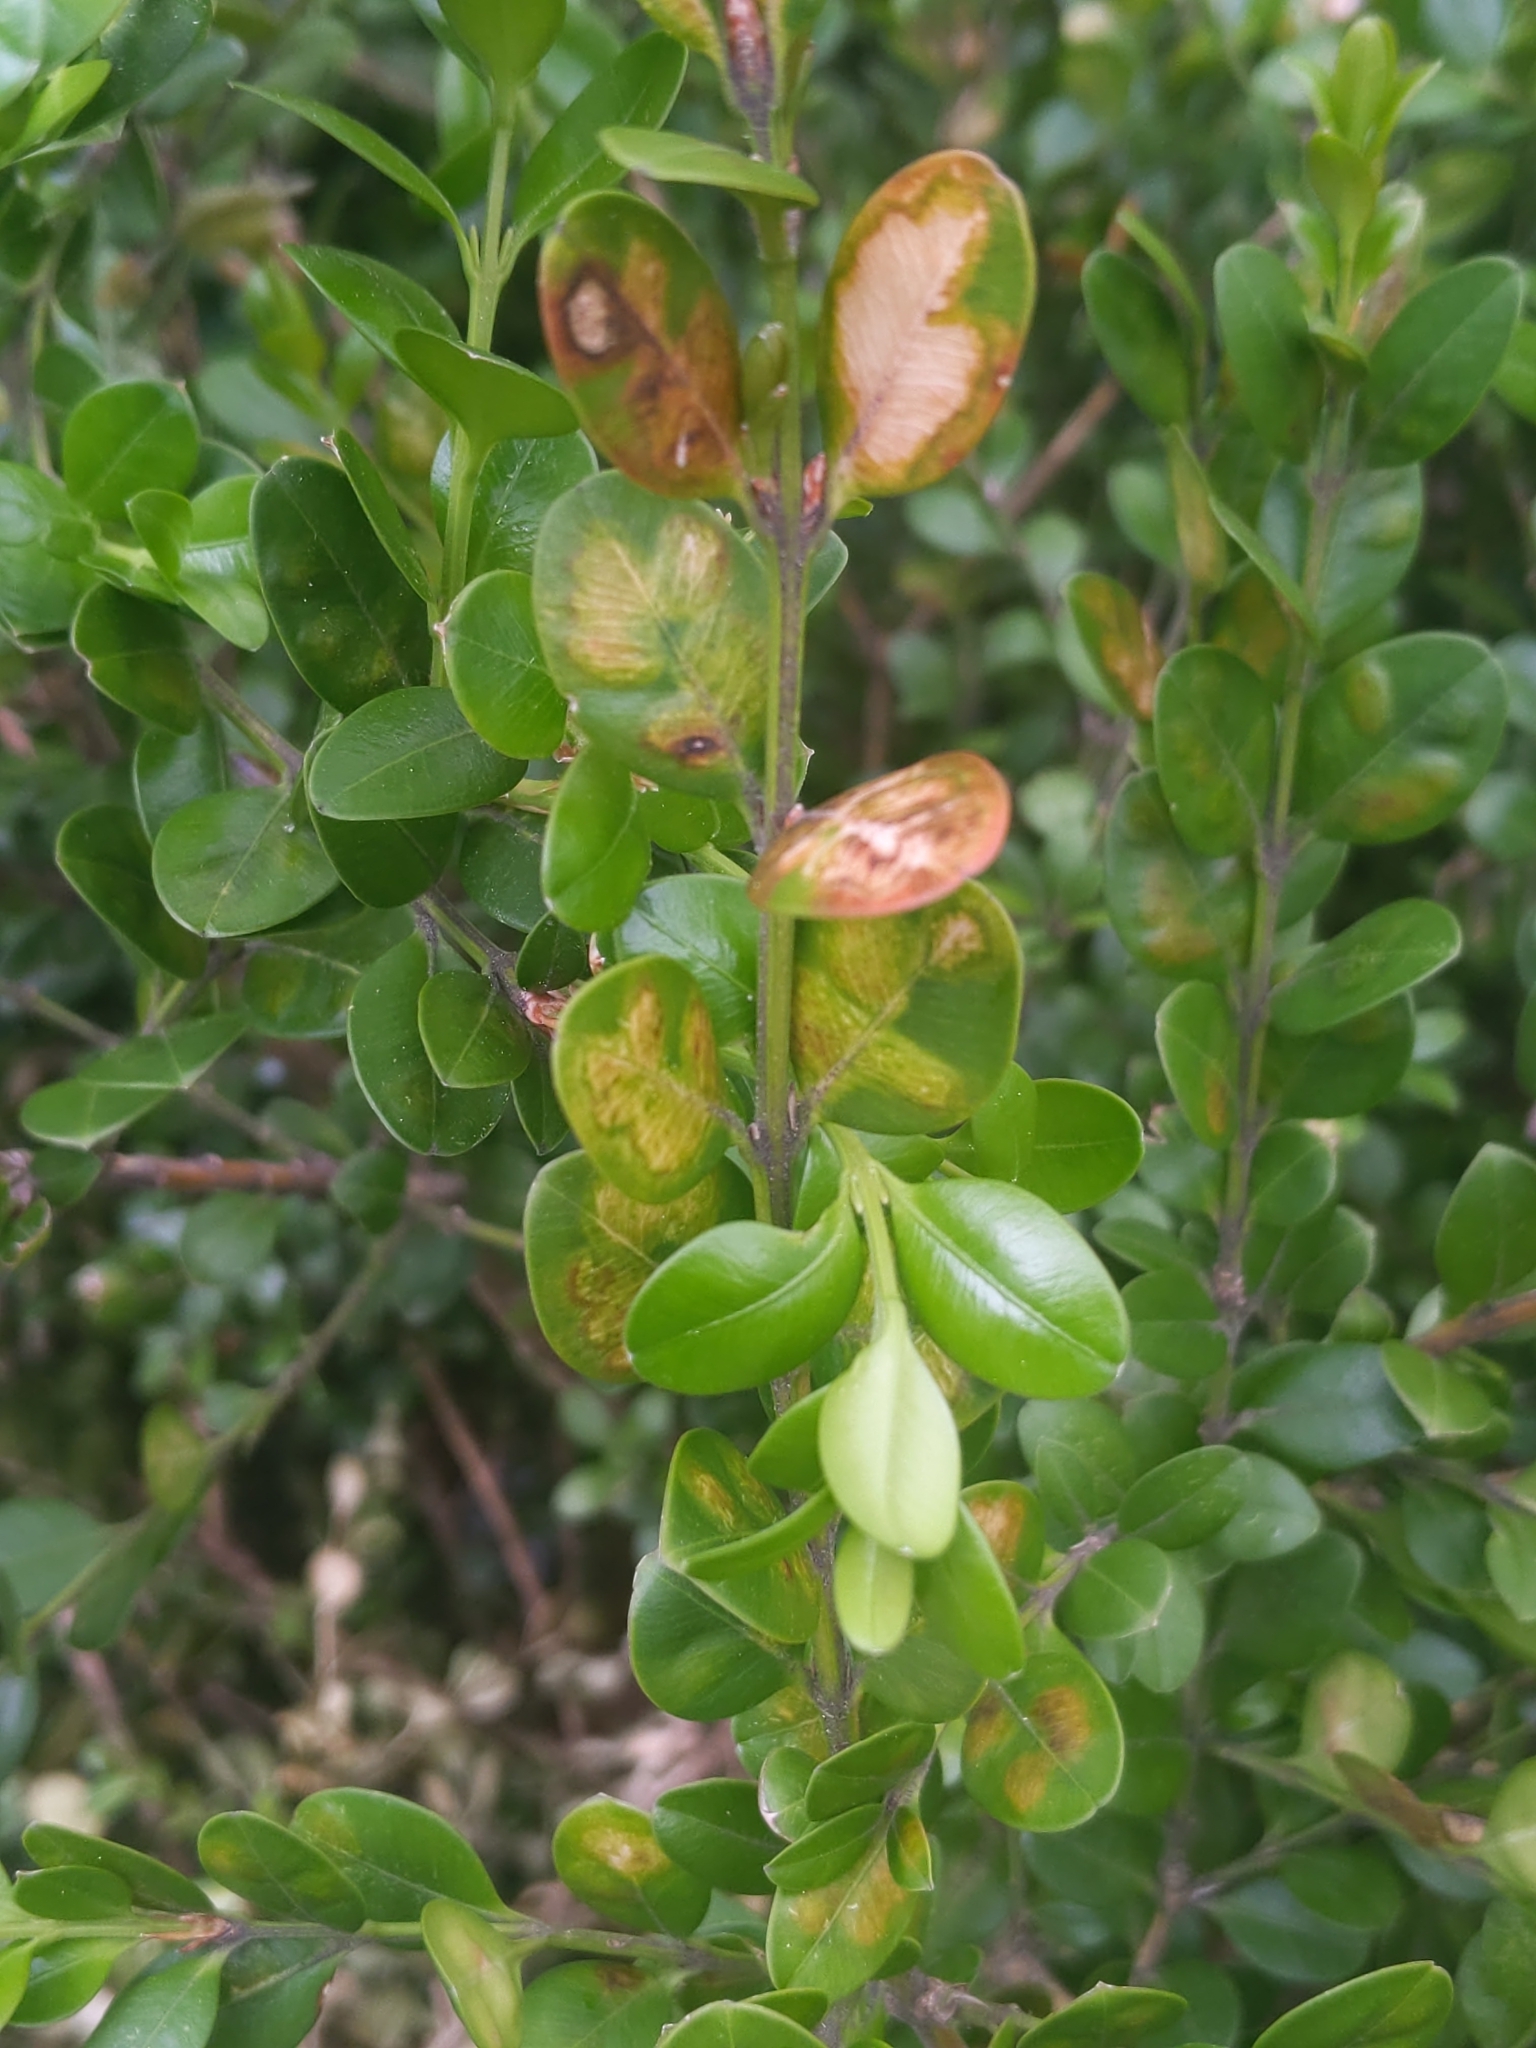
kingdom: Animalia
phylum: Arthropoda
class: Insecta
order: Diptera
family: Cecidomyiidae
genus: Monarthropalpus
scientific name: Monarthropalpus flavus
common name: Boxwood leafminer
